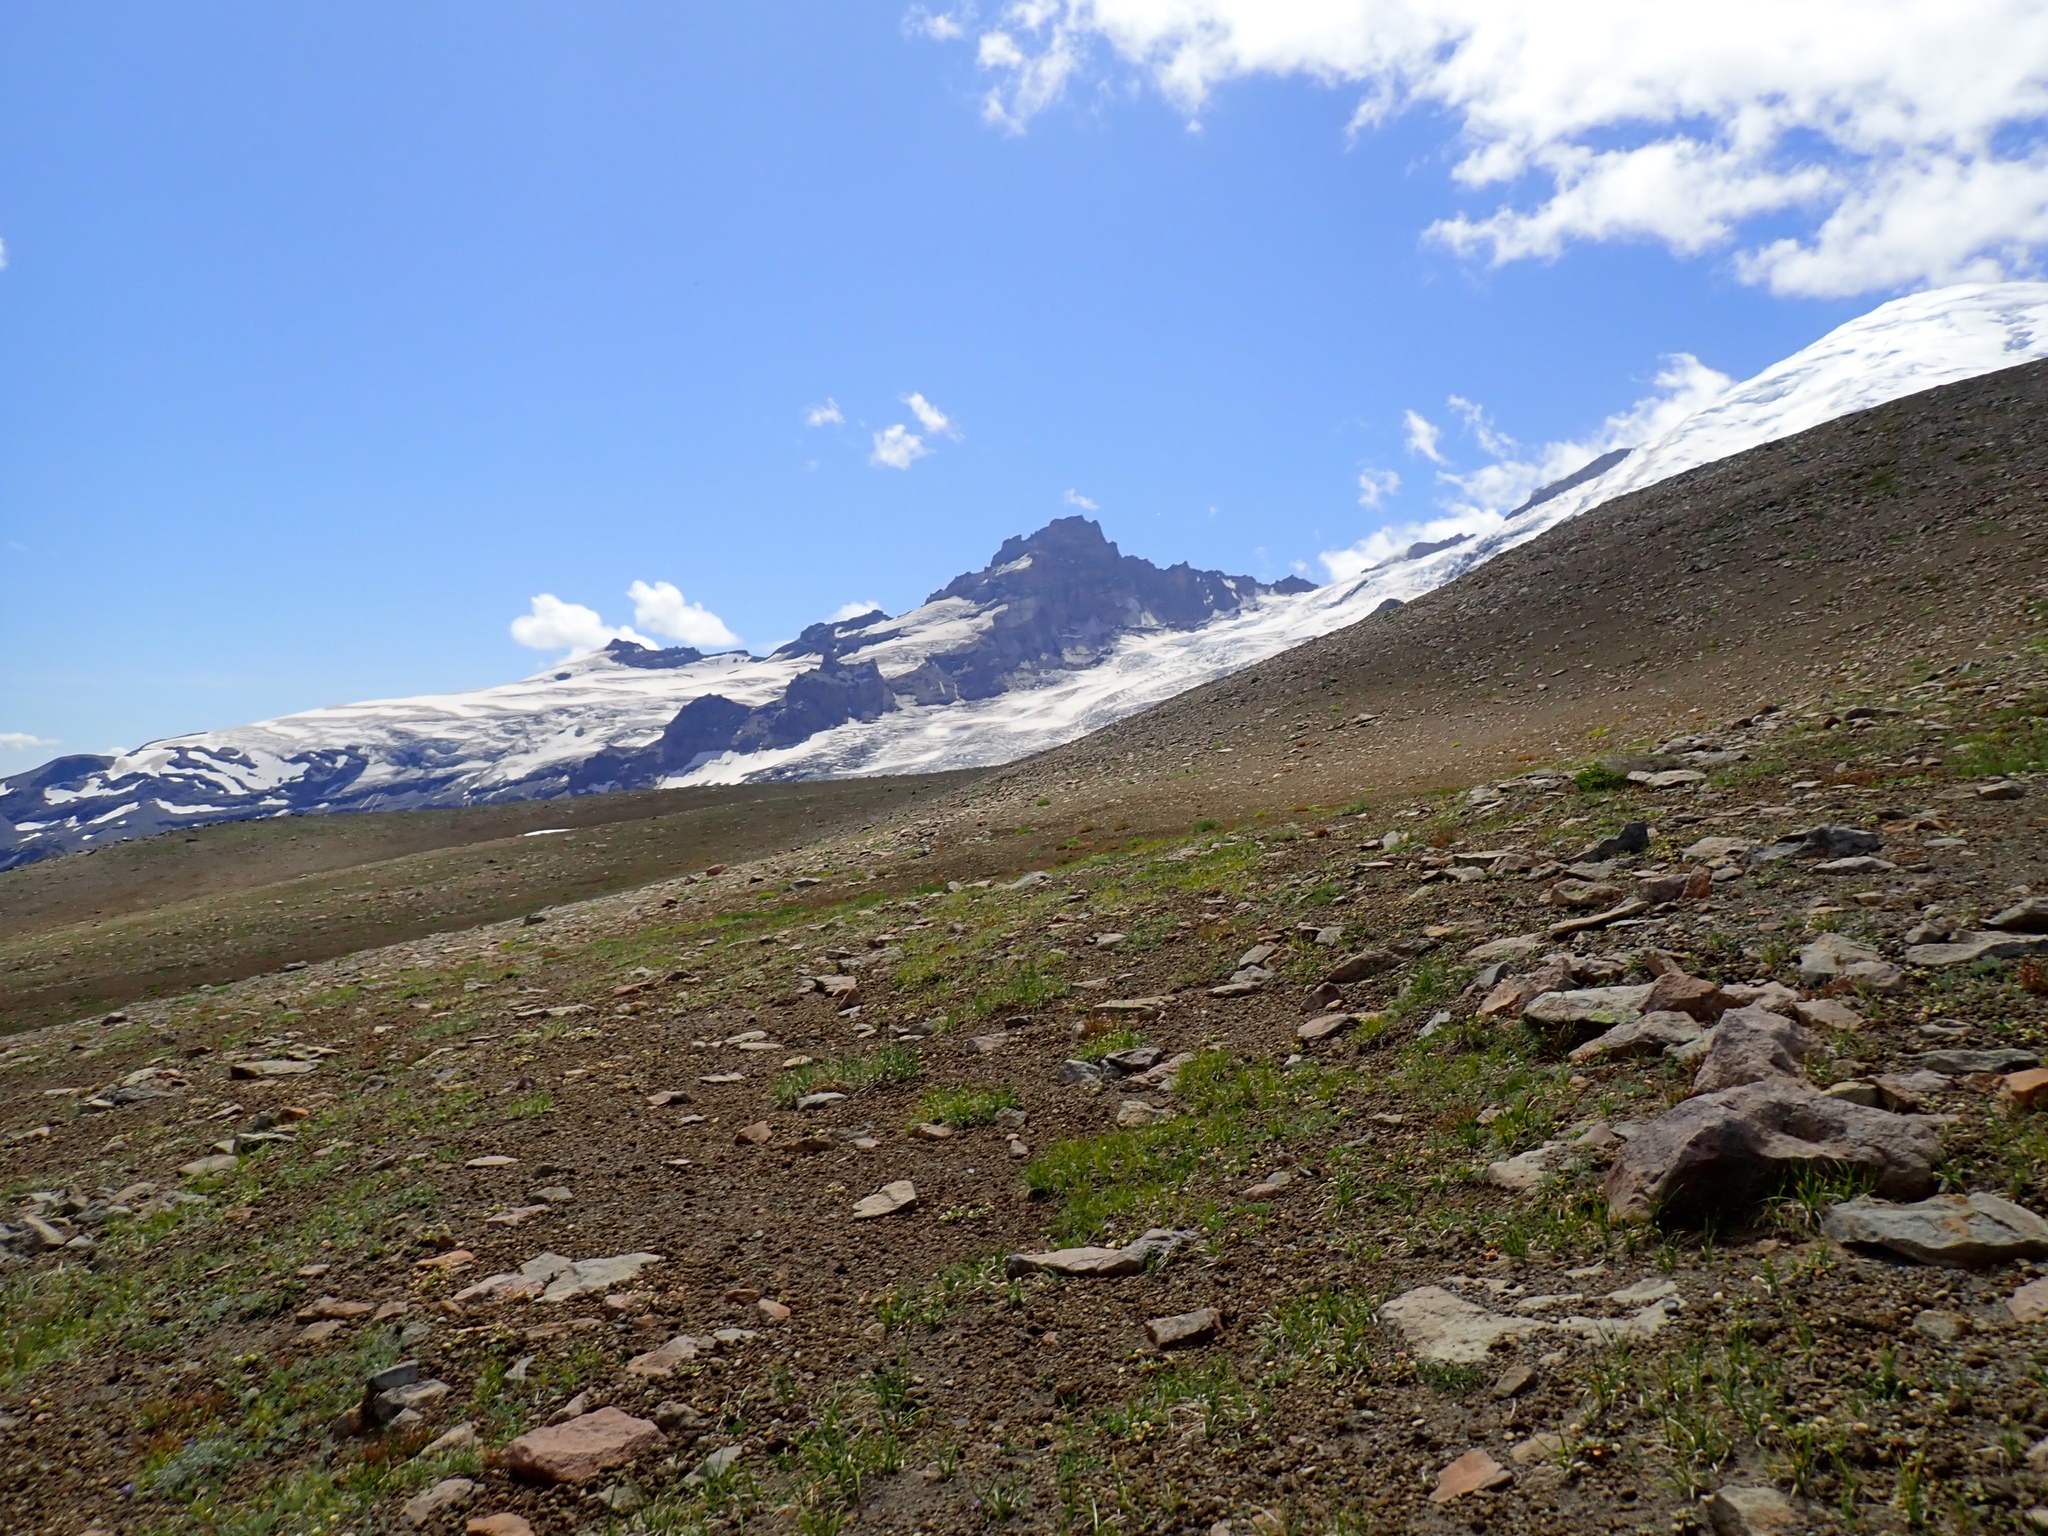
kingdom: Plantae
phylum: Tracheophyta
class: Magnoliopsida
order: Caryophyllales
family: Polygonaceae
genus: Eriogonum
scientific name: Eriogonum pyrolifolium
